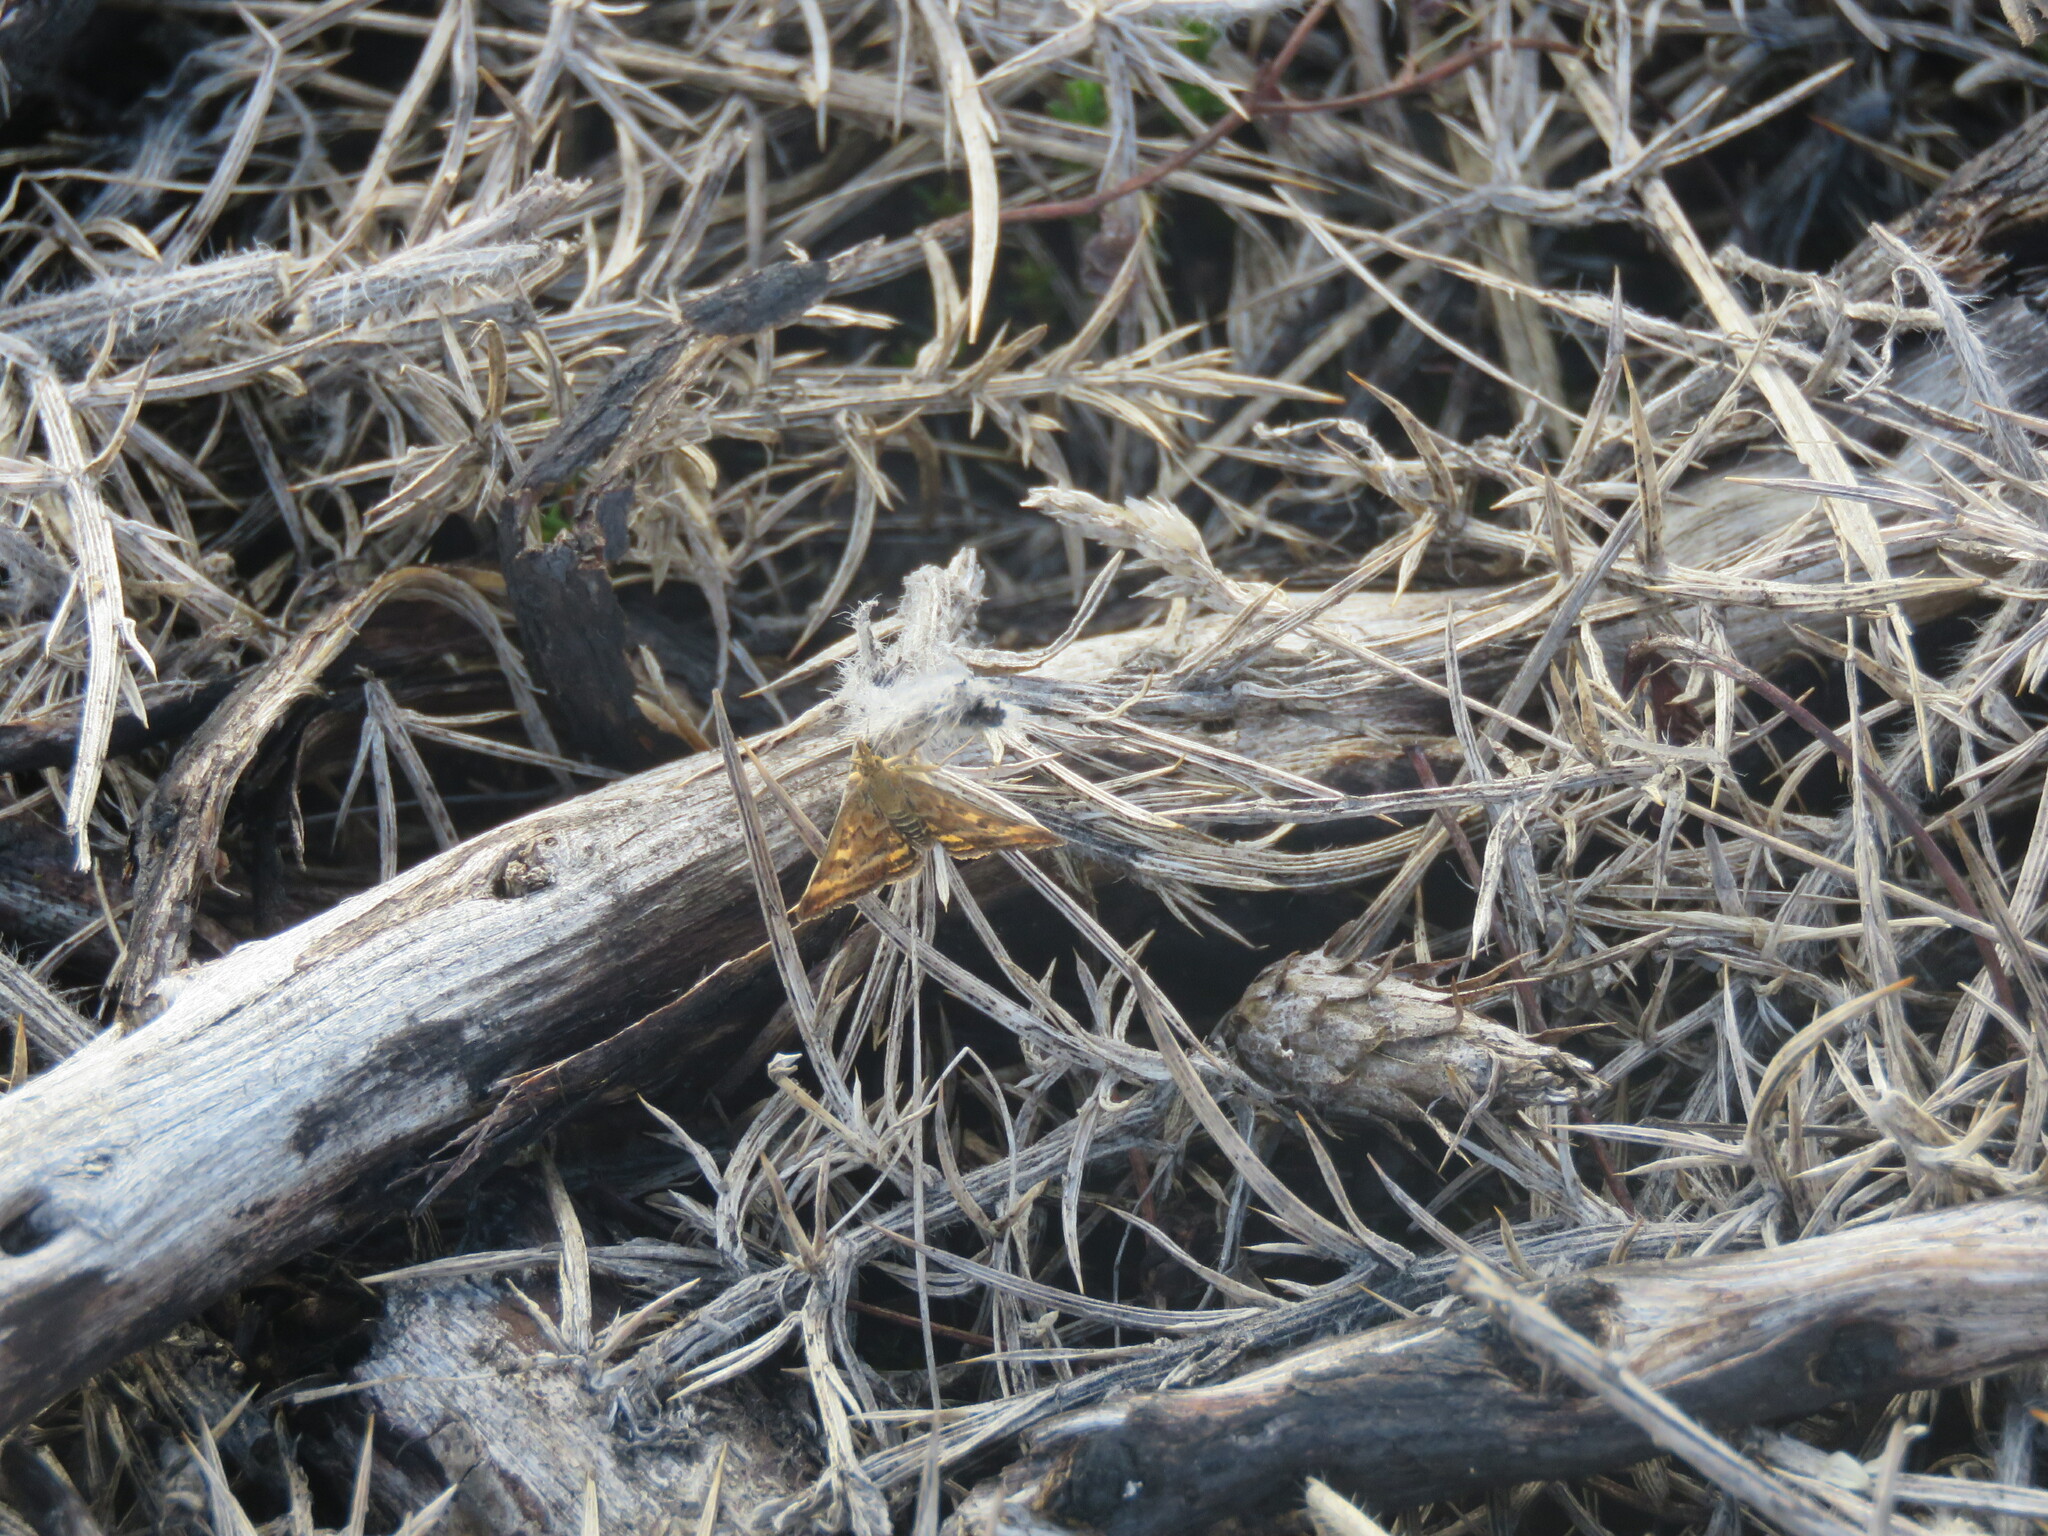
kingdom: Animalia
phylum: Arthropoda
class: Insecta
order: Lepidoptera
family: Crambidae
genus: Pyrausta
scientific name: Pyrausta despicata
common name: Straw-barred pearl
